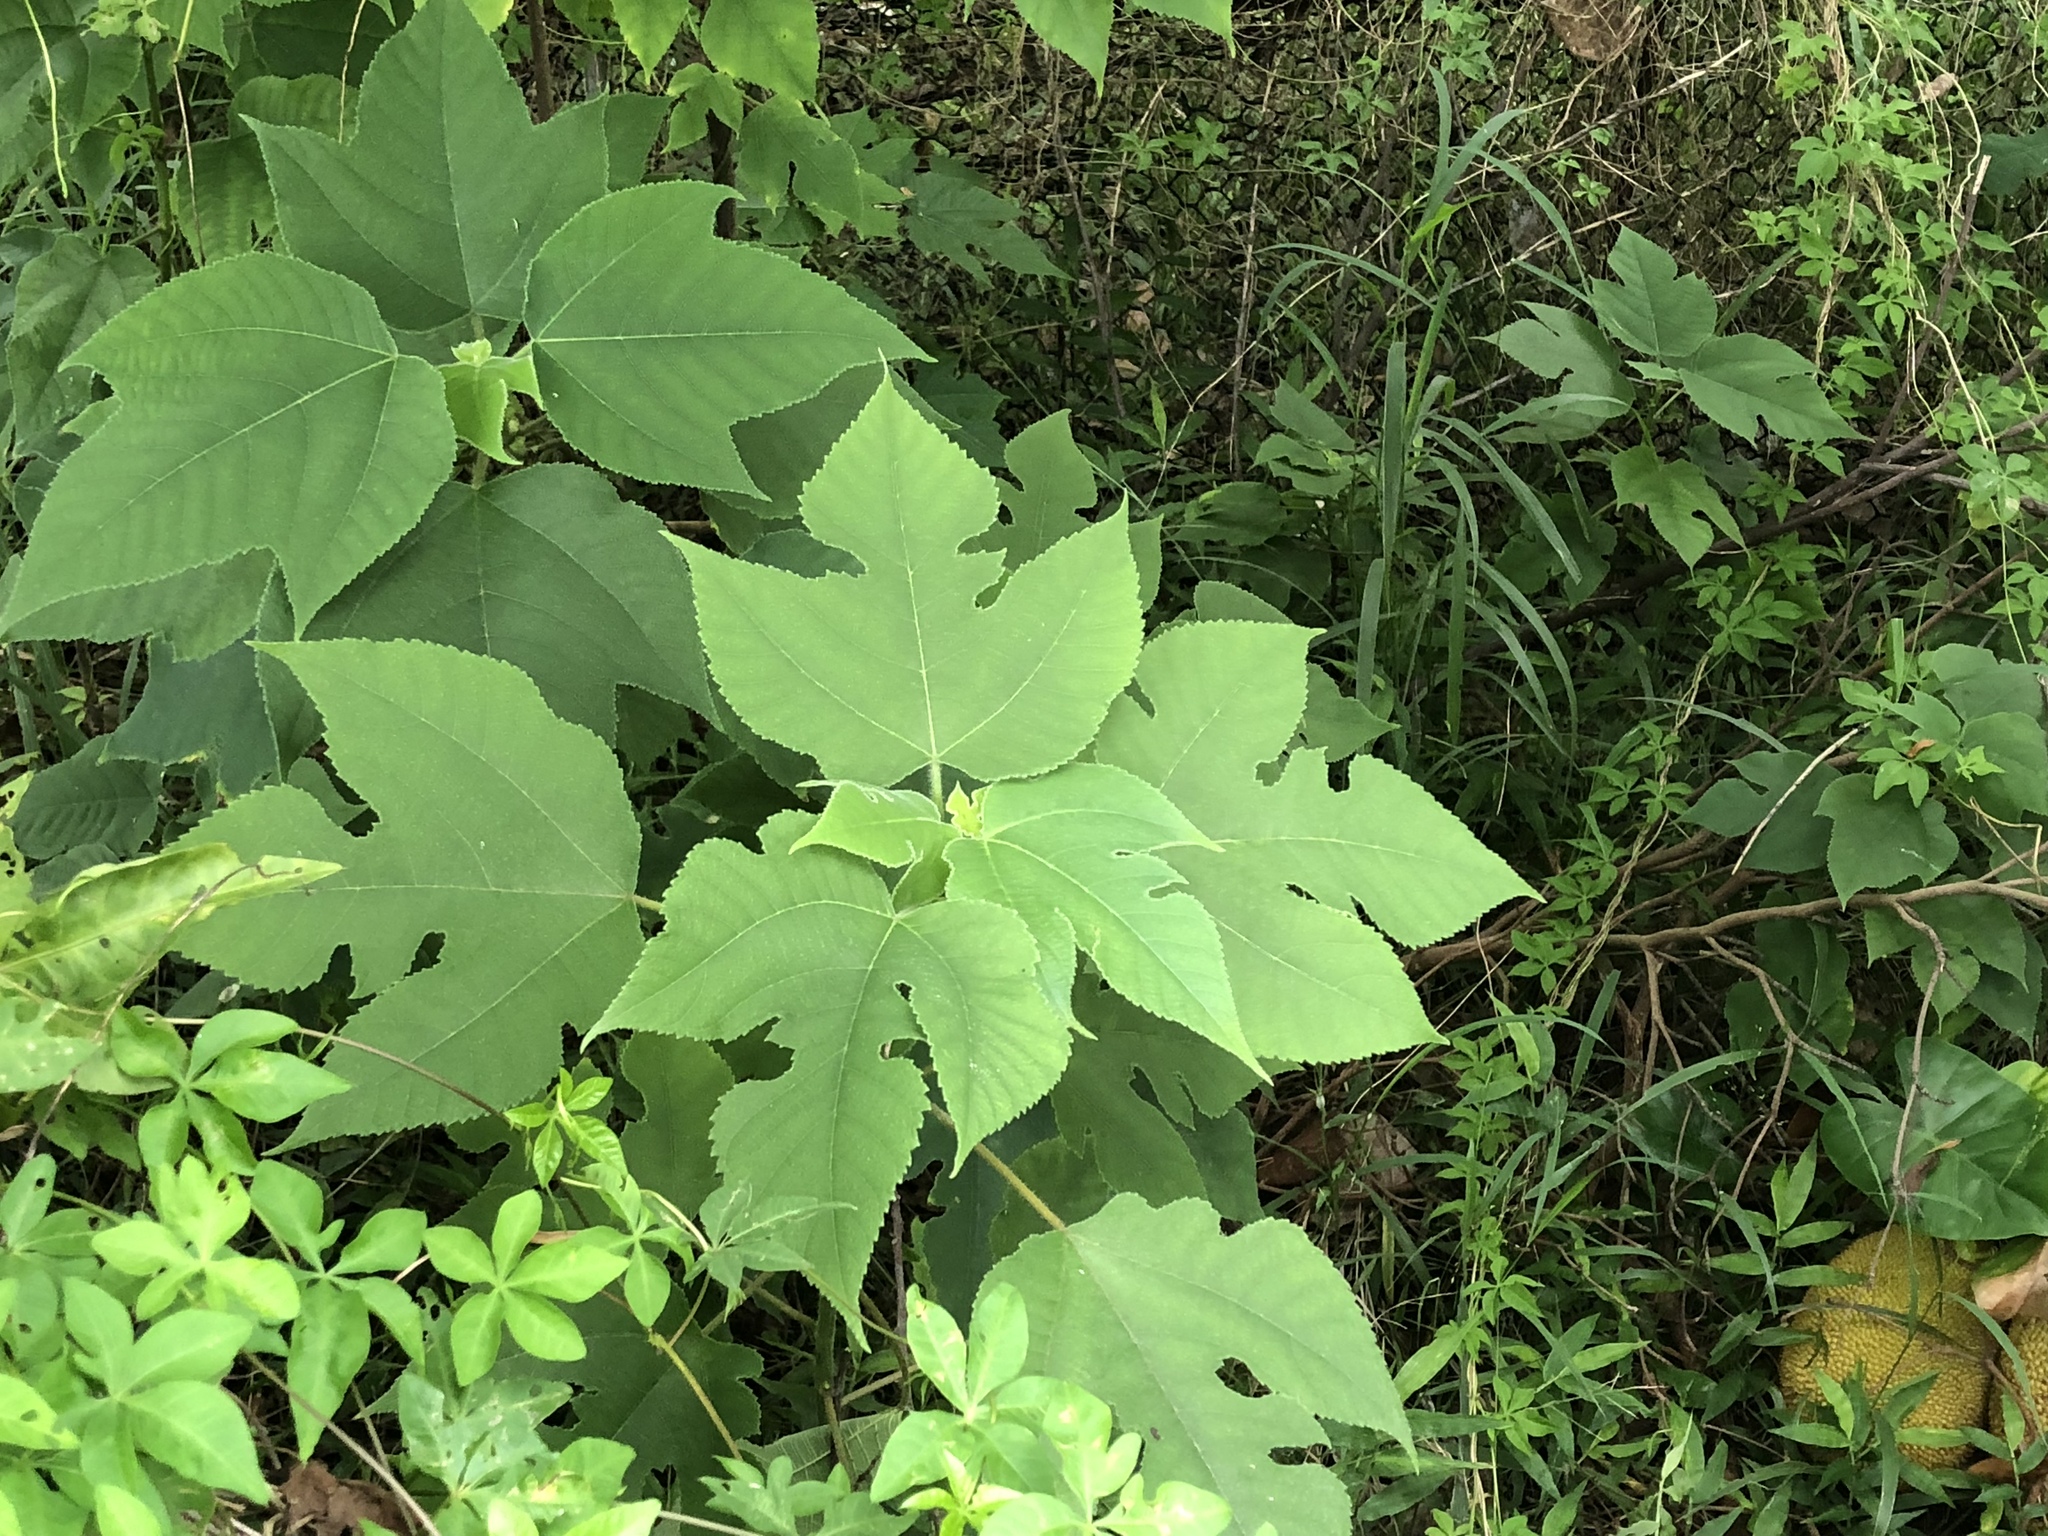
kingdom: Plantae
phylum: Tracheophyta
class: Magnoliopsida
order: Rosales
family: Moraceae
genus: Broussonetia
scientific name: Broussonetia papyrifera
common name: Paper mulberry
